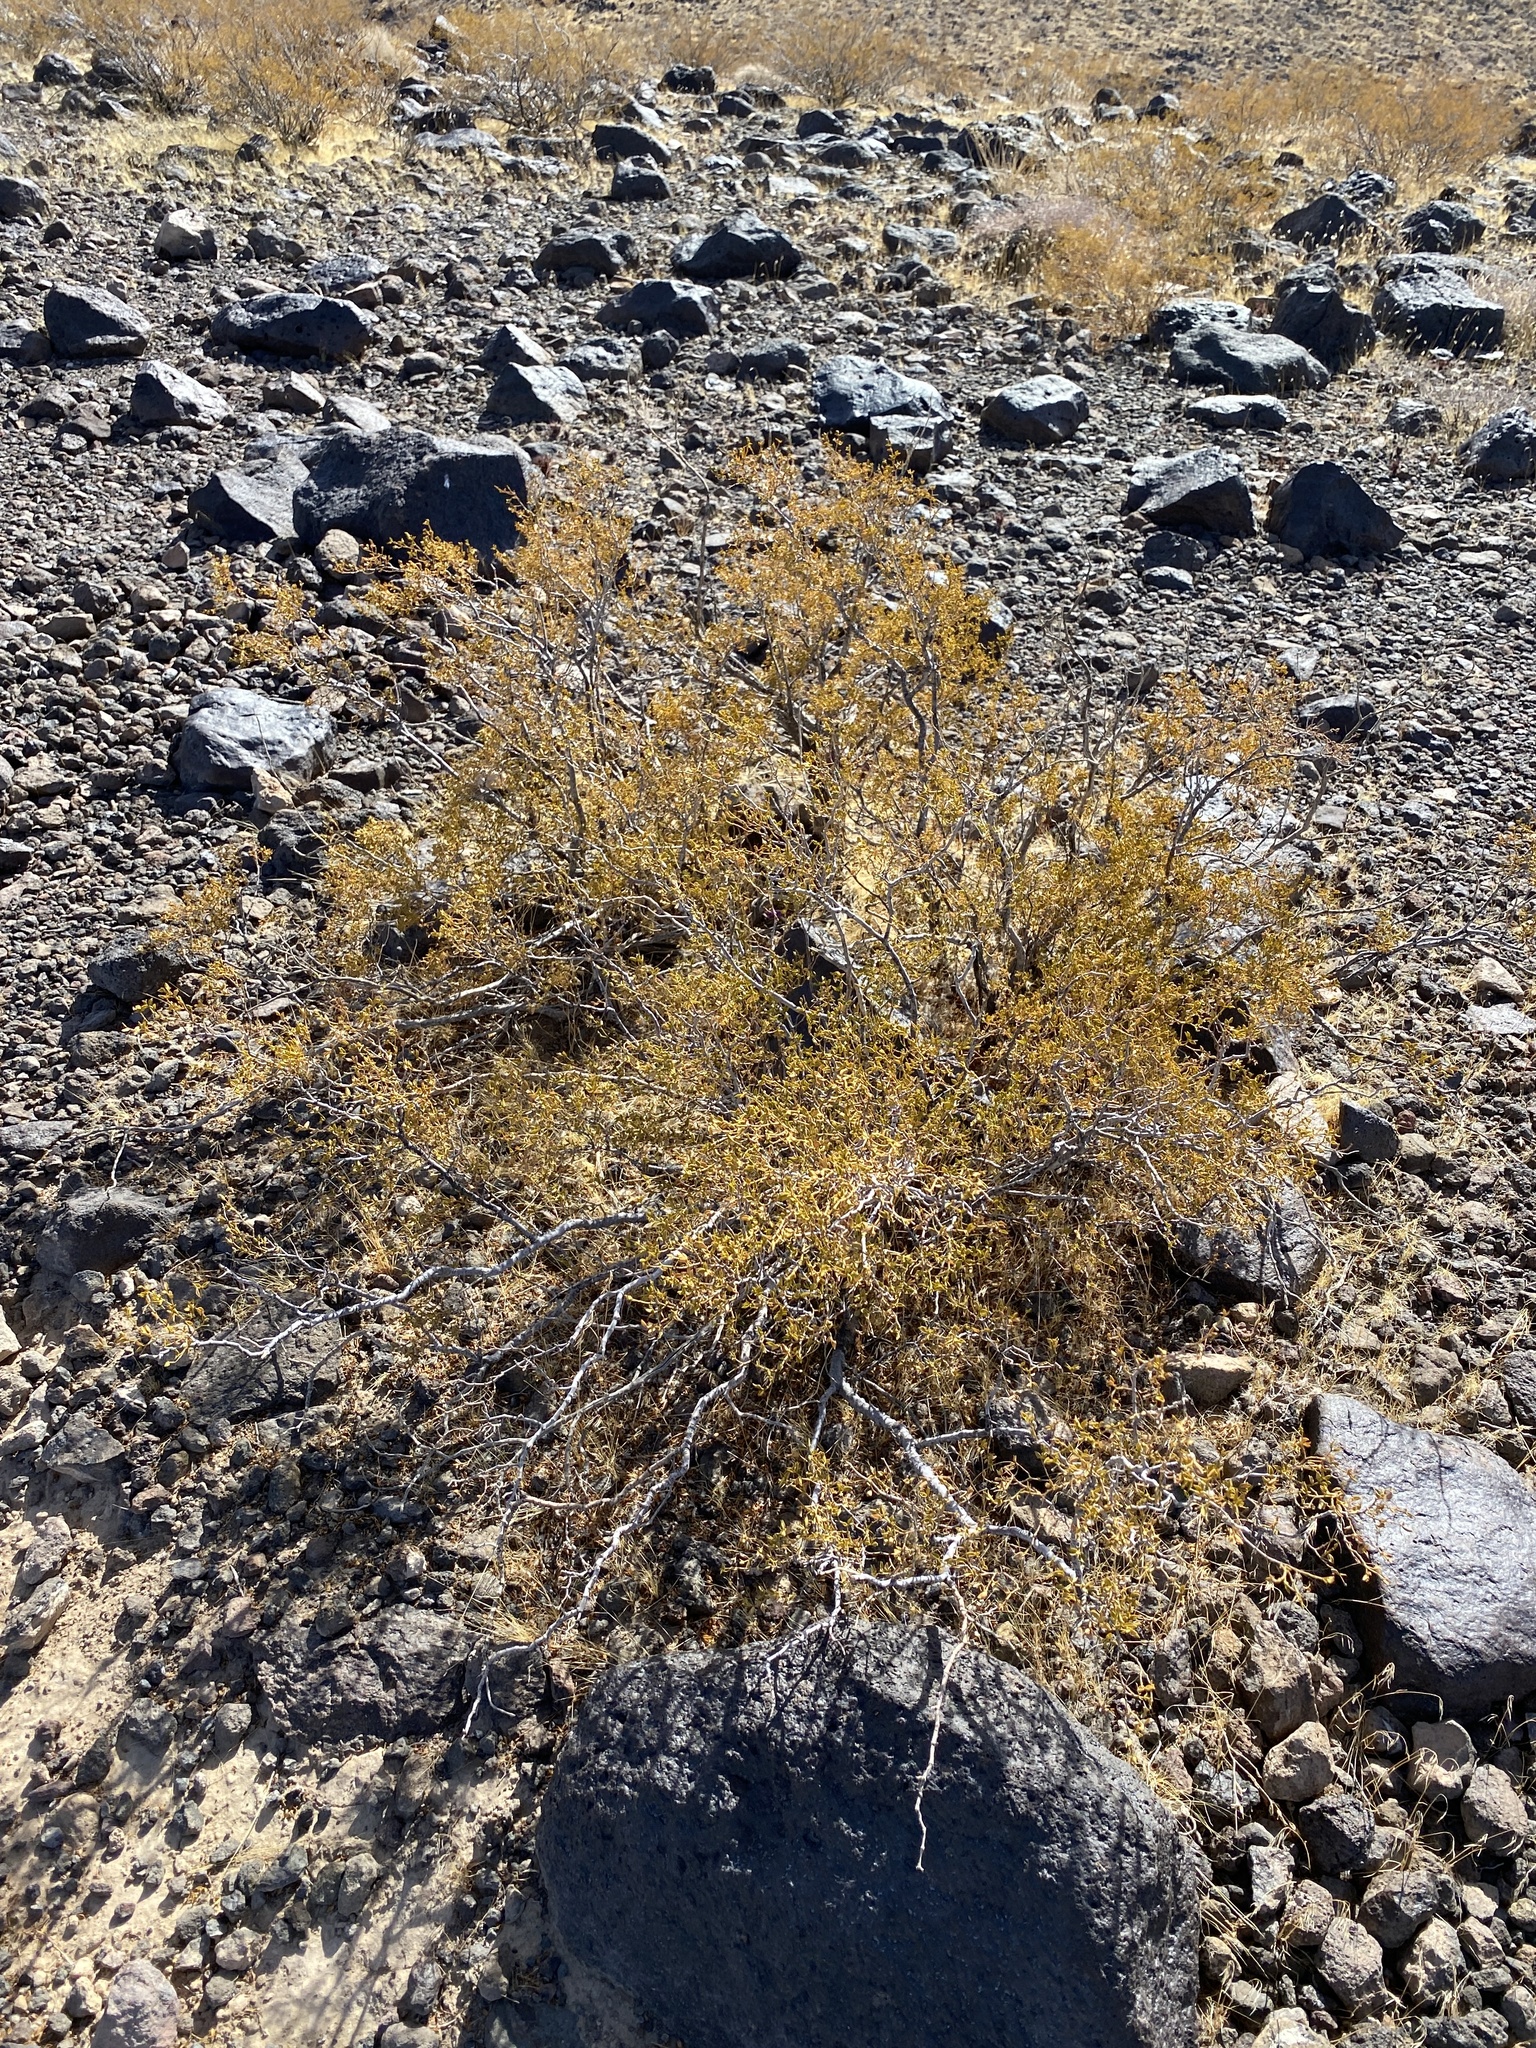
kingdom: Plantae
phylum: Tracheophyta
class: Magnoliopsida
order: Zygophyllales
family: Zygophyllaceae
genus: Larrea
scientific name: Larrea tridentata
